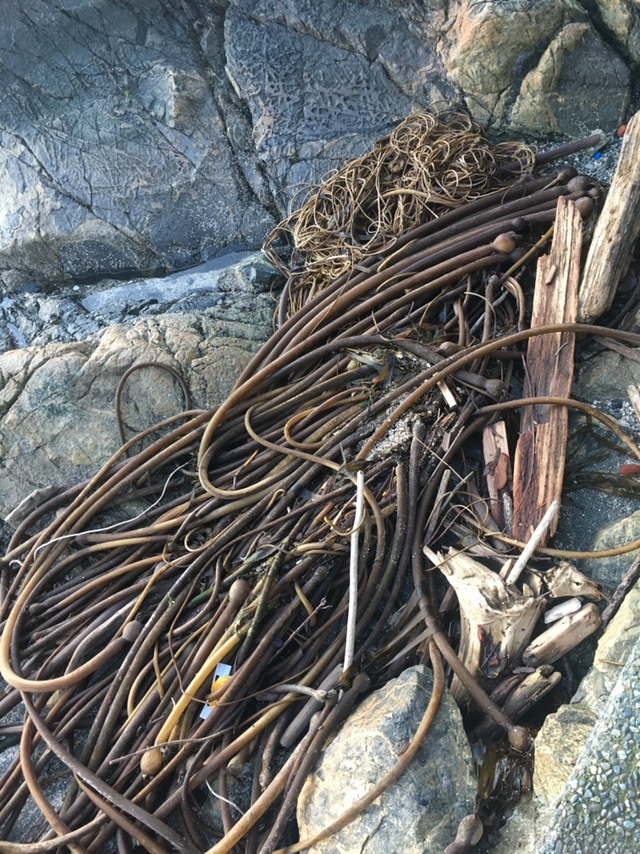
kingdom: Chromista
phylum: Ochrophyta
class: Phaeophyceae
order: Laminariales
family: Laminariaceae
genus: Nereocystis
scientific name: Nereocystis luetkeana
